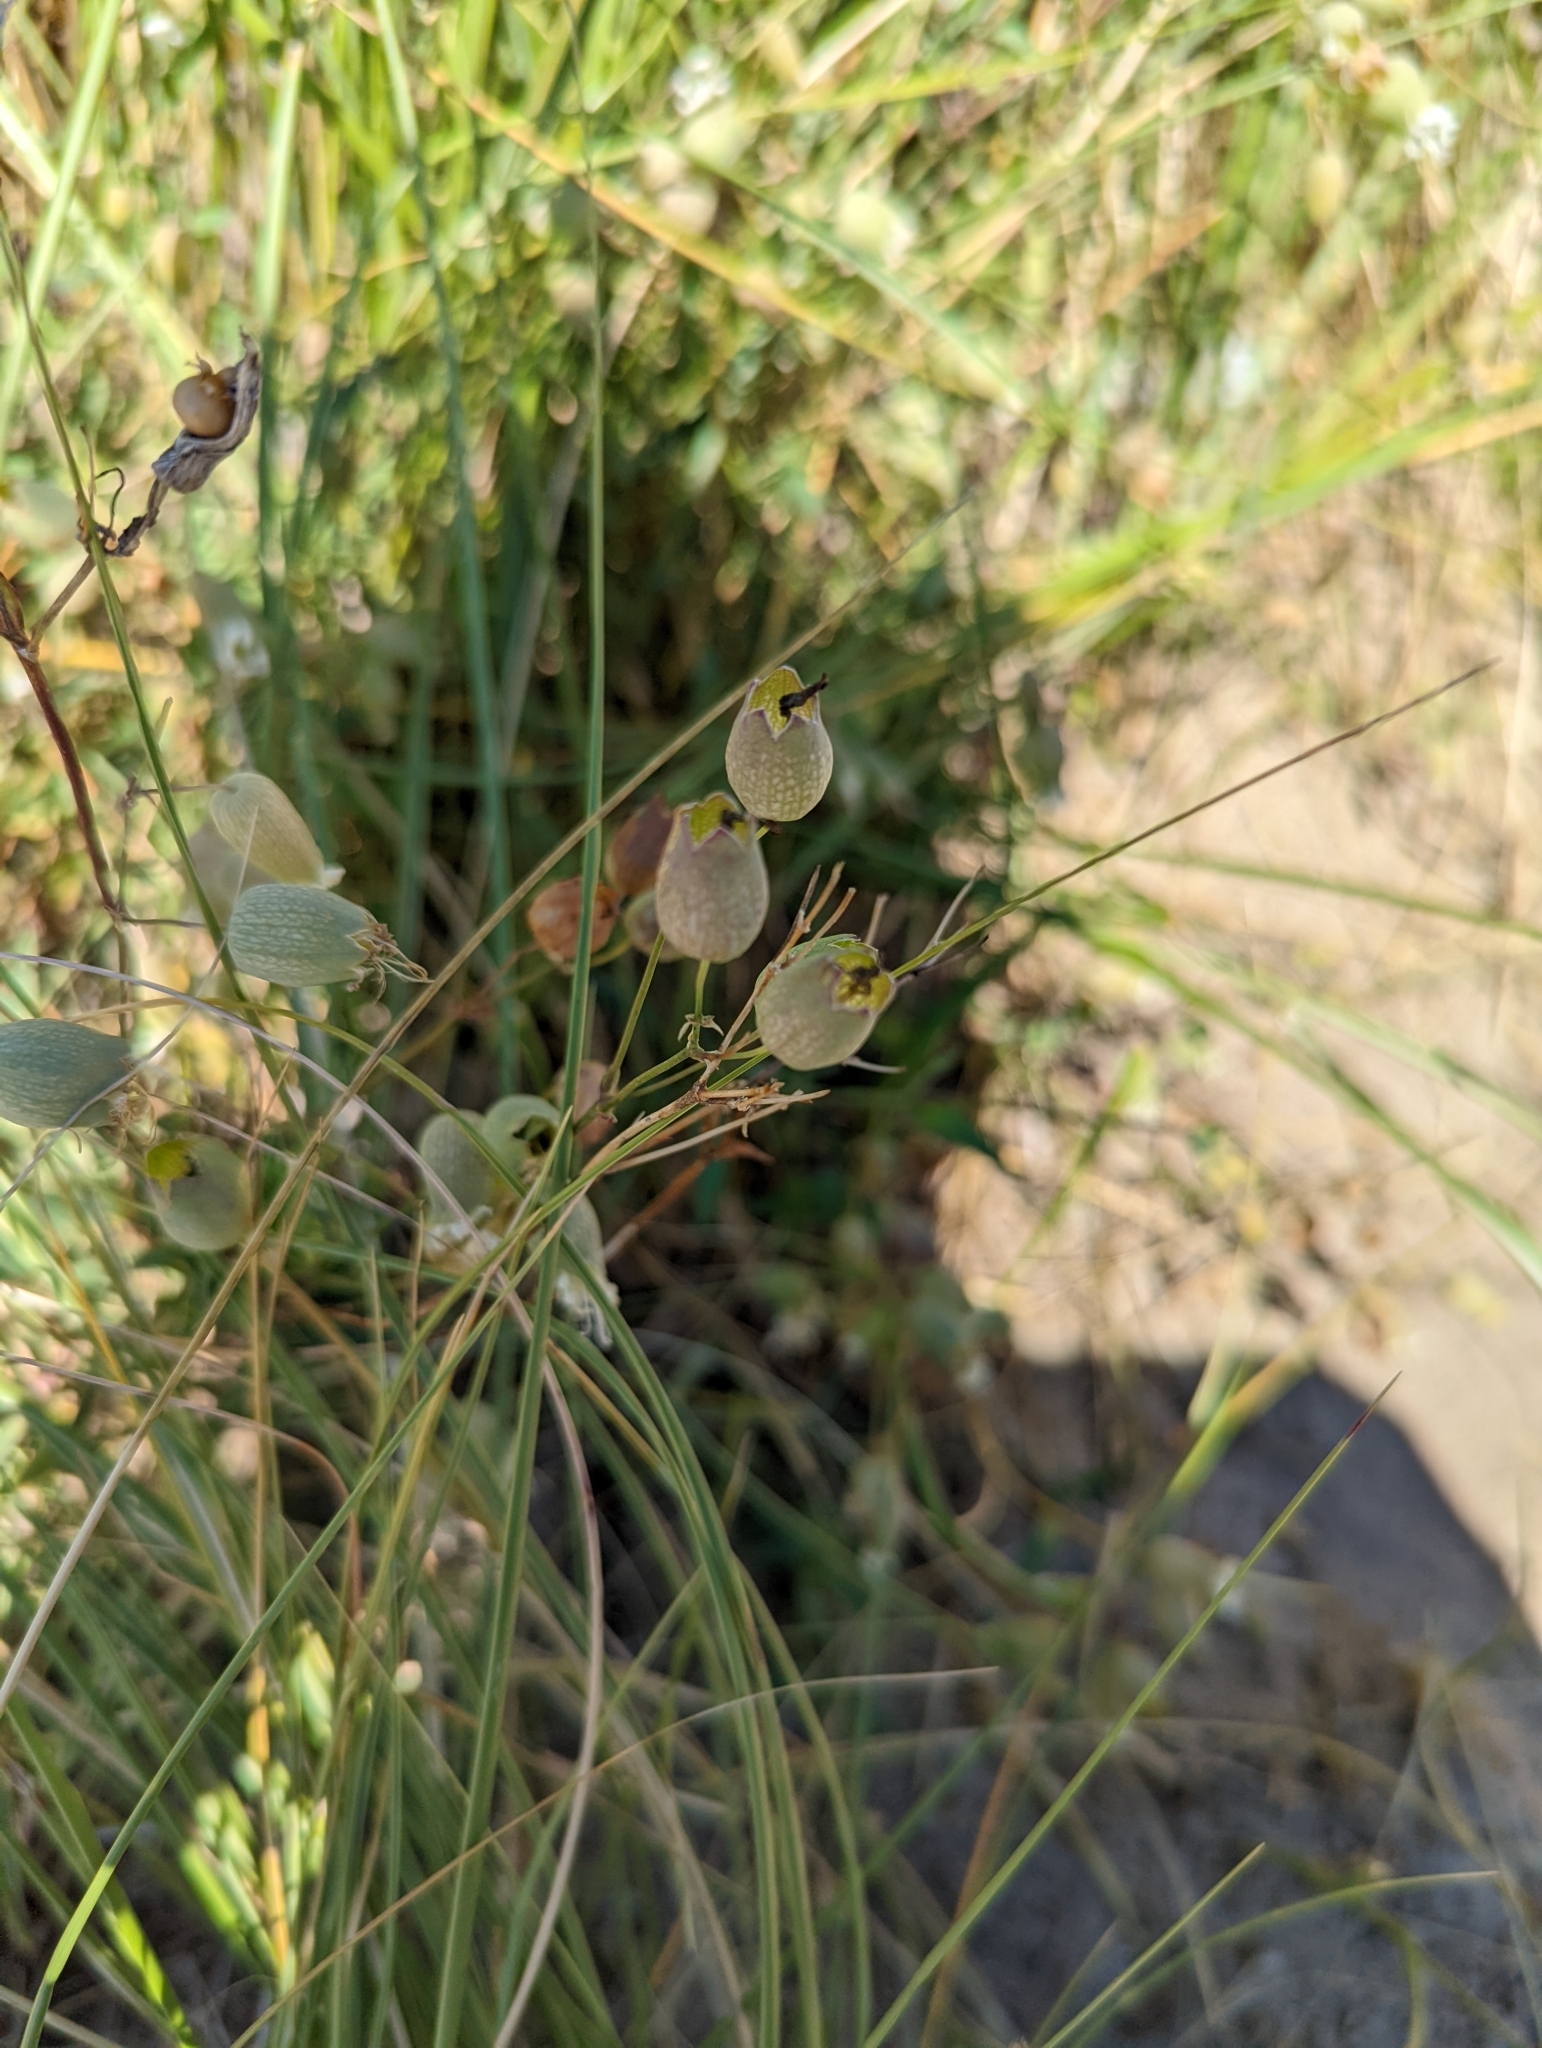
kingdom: Plantae
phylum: Tracheophyta
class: Magnoliopsida
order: Caryophyllales
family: Caryophyllaceae
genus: Silene
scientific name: Silene vulgaris
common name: Bladder campion
